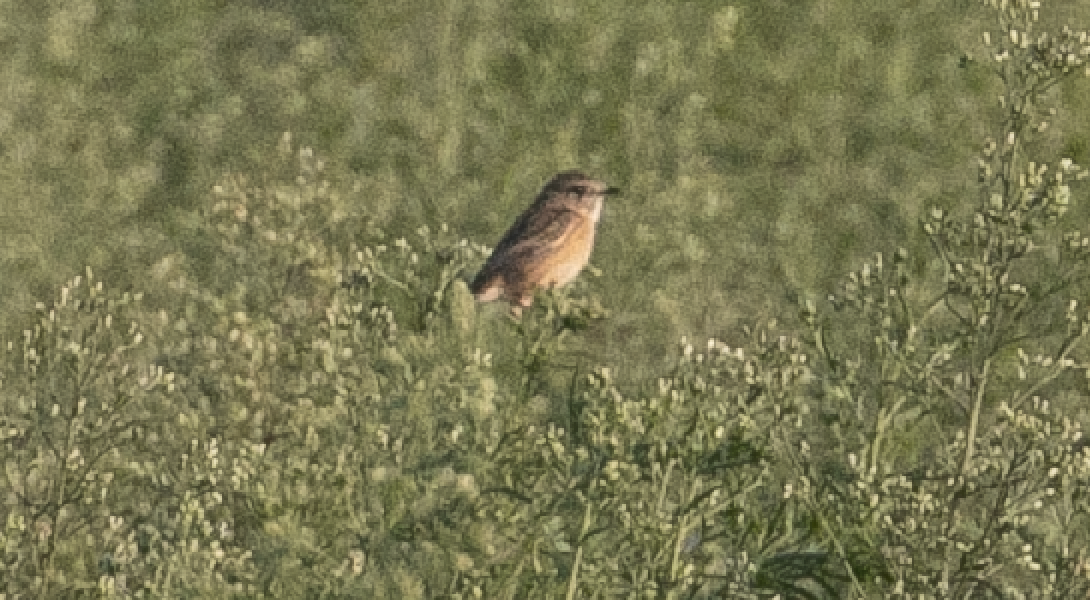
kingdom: Animalia
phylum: Chordata
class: Aves
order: Passeriformes
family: Muscicapidae
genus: Saxicola
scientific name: Saxicola rubicola
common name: European stonechat
